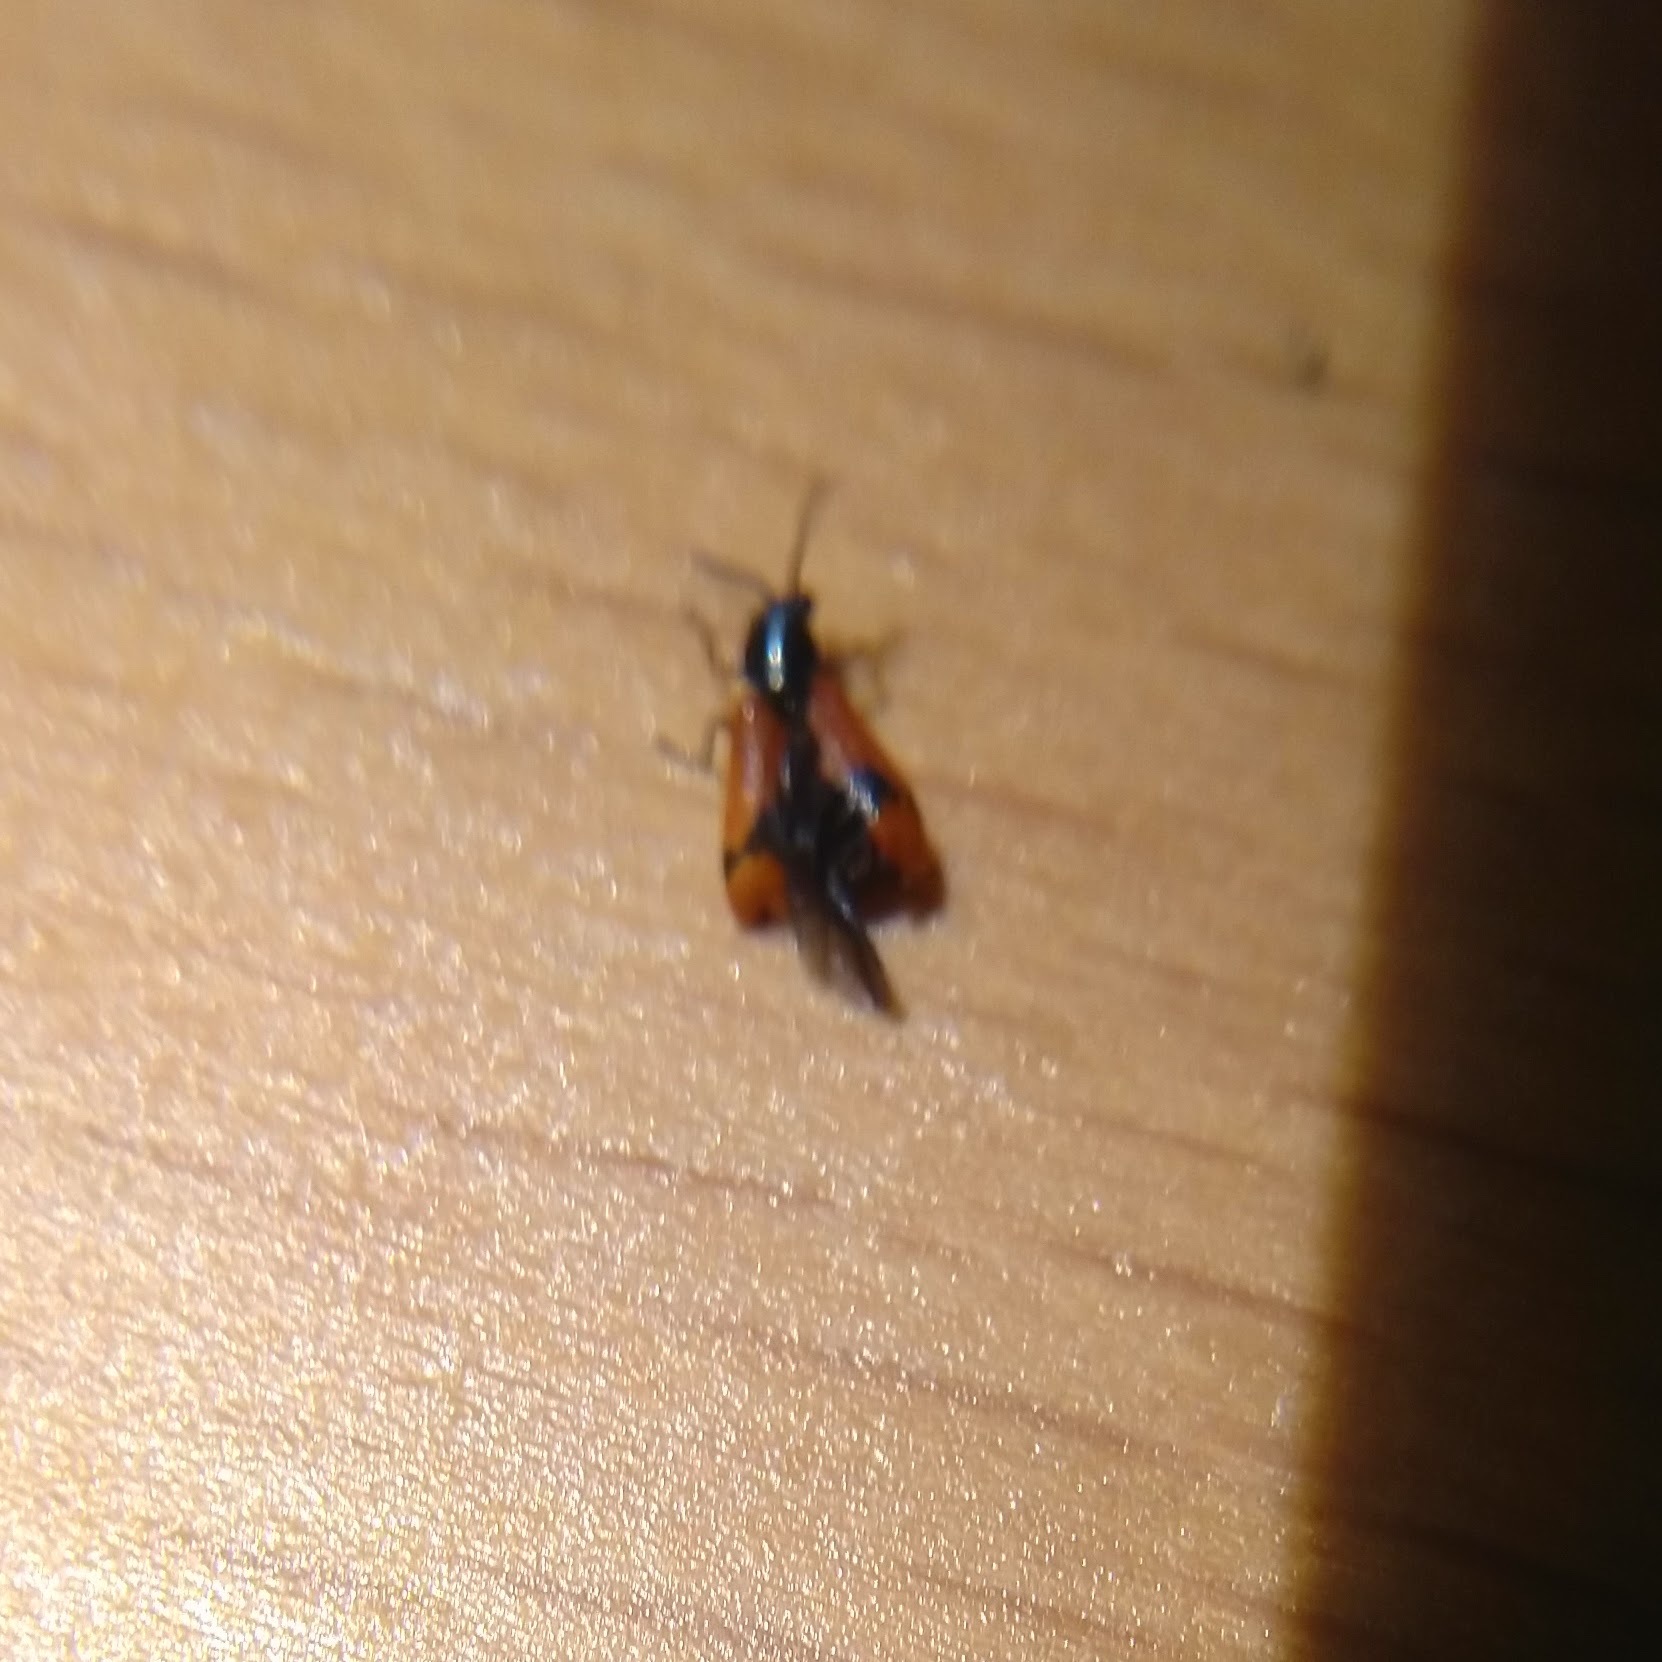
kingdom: Animalia
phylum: Arthropoda
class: Insecta
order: Coleoptera
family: Melyridae
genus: Anthocomus
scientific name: Anthocomus equestris
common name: Black-banded soft-winged flower beetle
